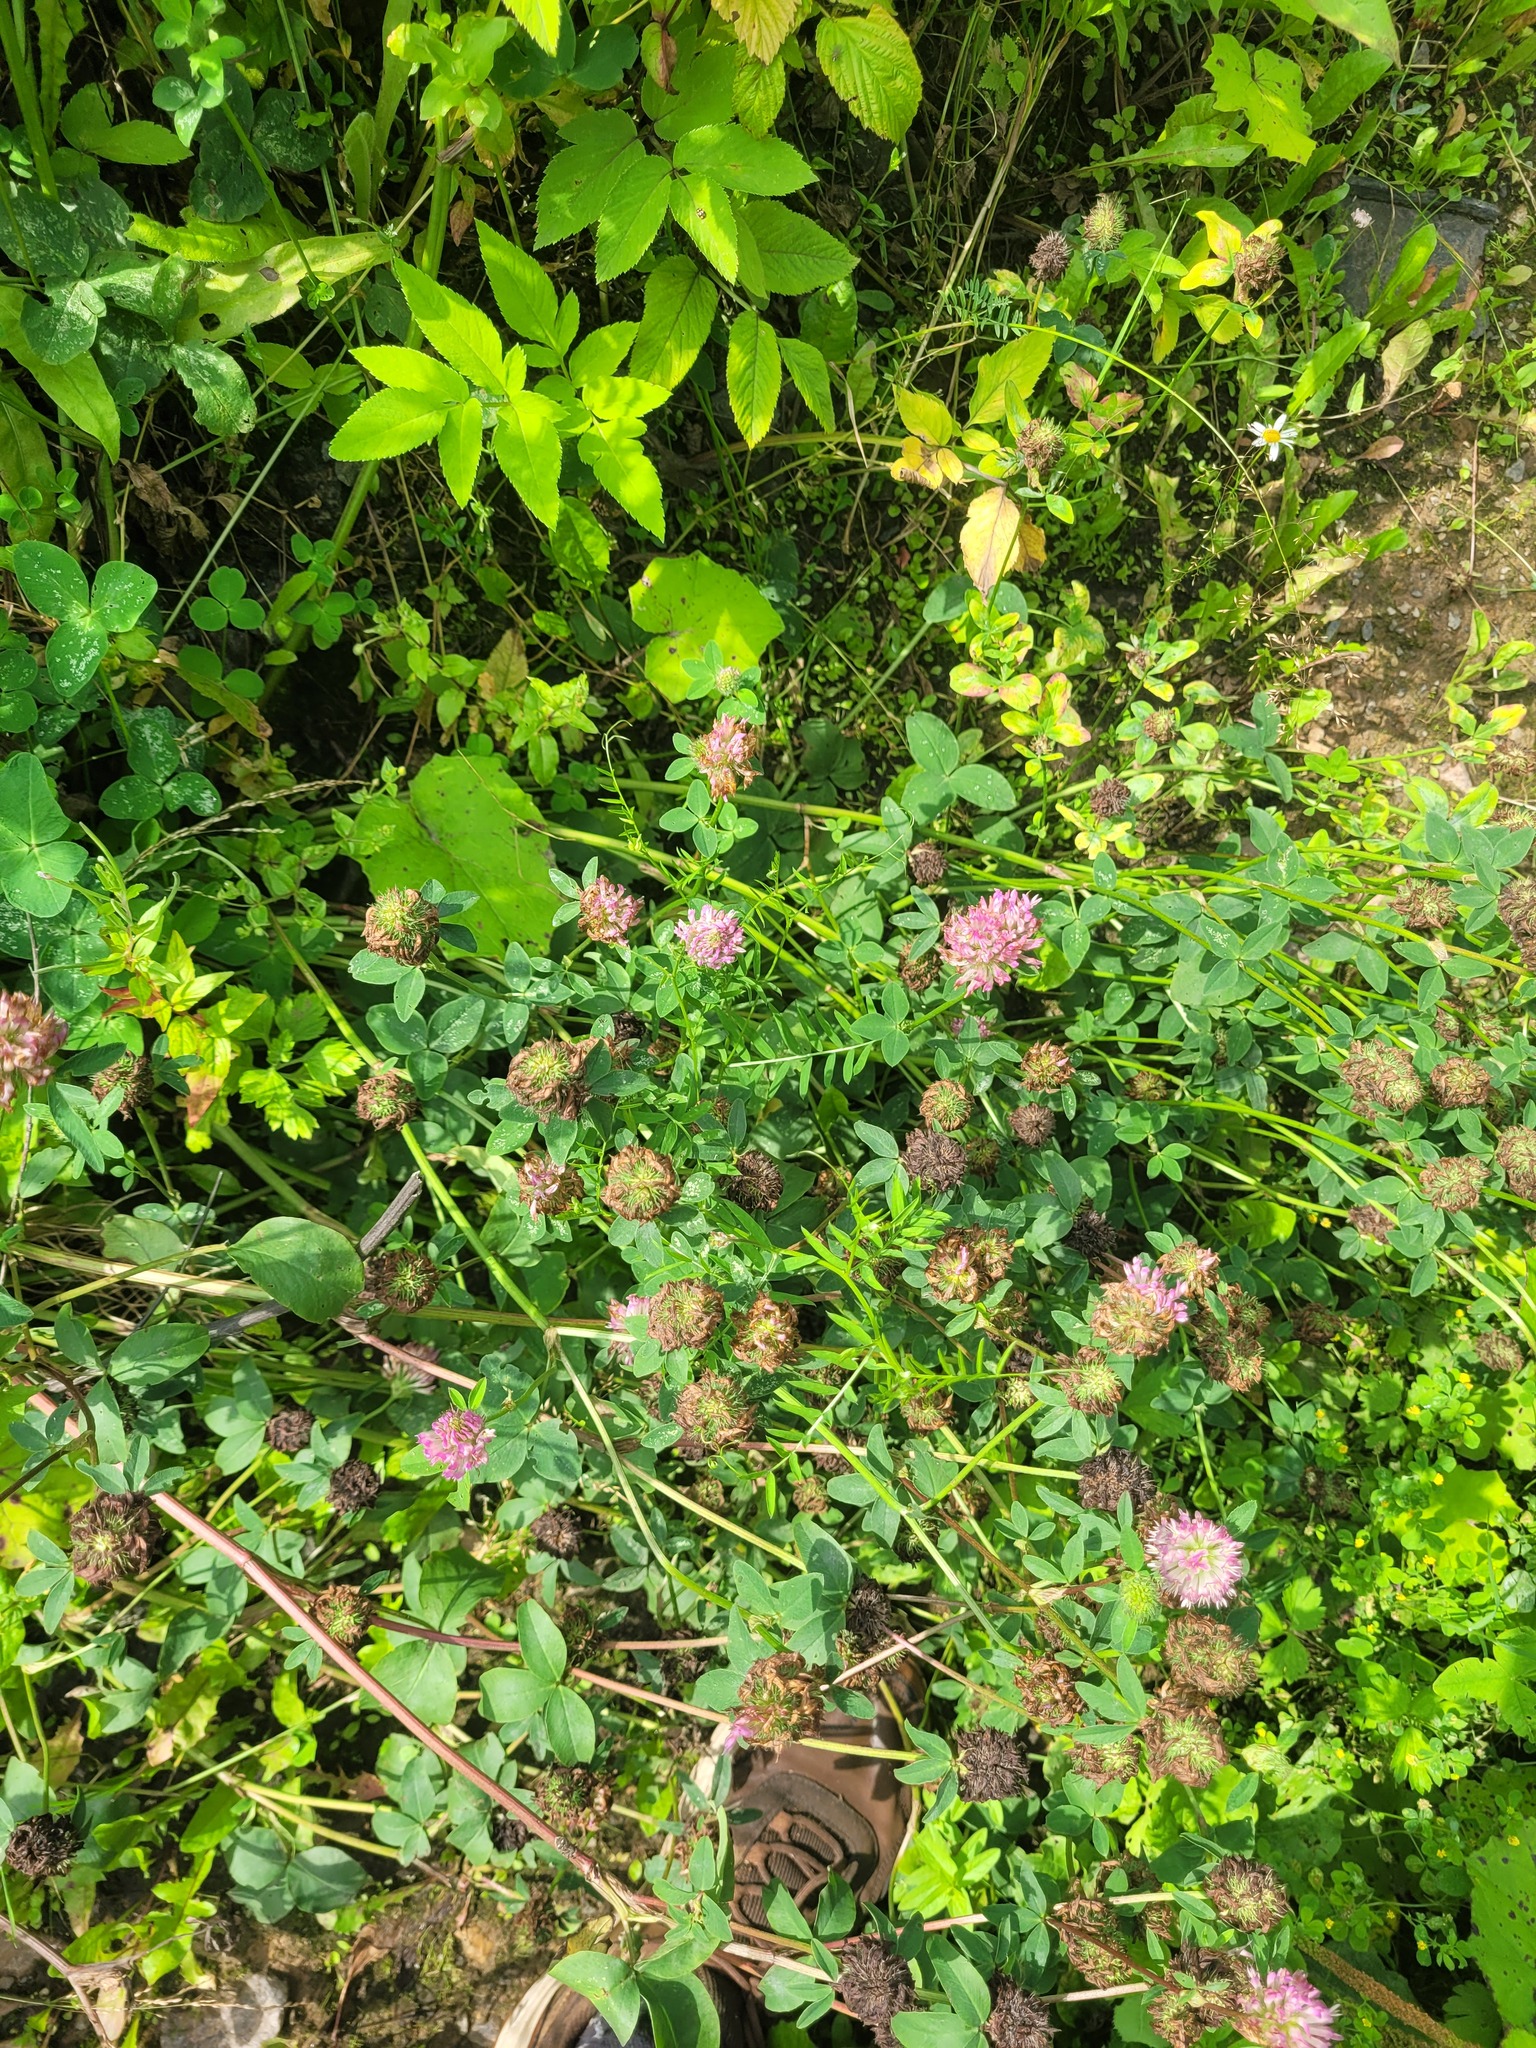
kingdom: Plantae
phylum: Tracheophyta
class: Magnoliopsida
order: Fabales
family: Fabaceae
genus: Trifolium
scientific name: Trifolium pratense
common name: Red clover
